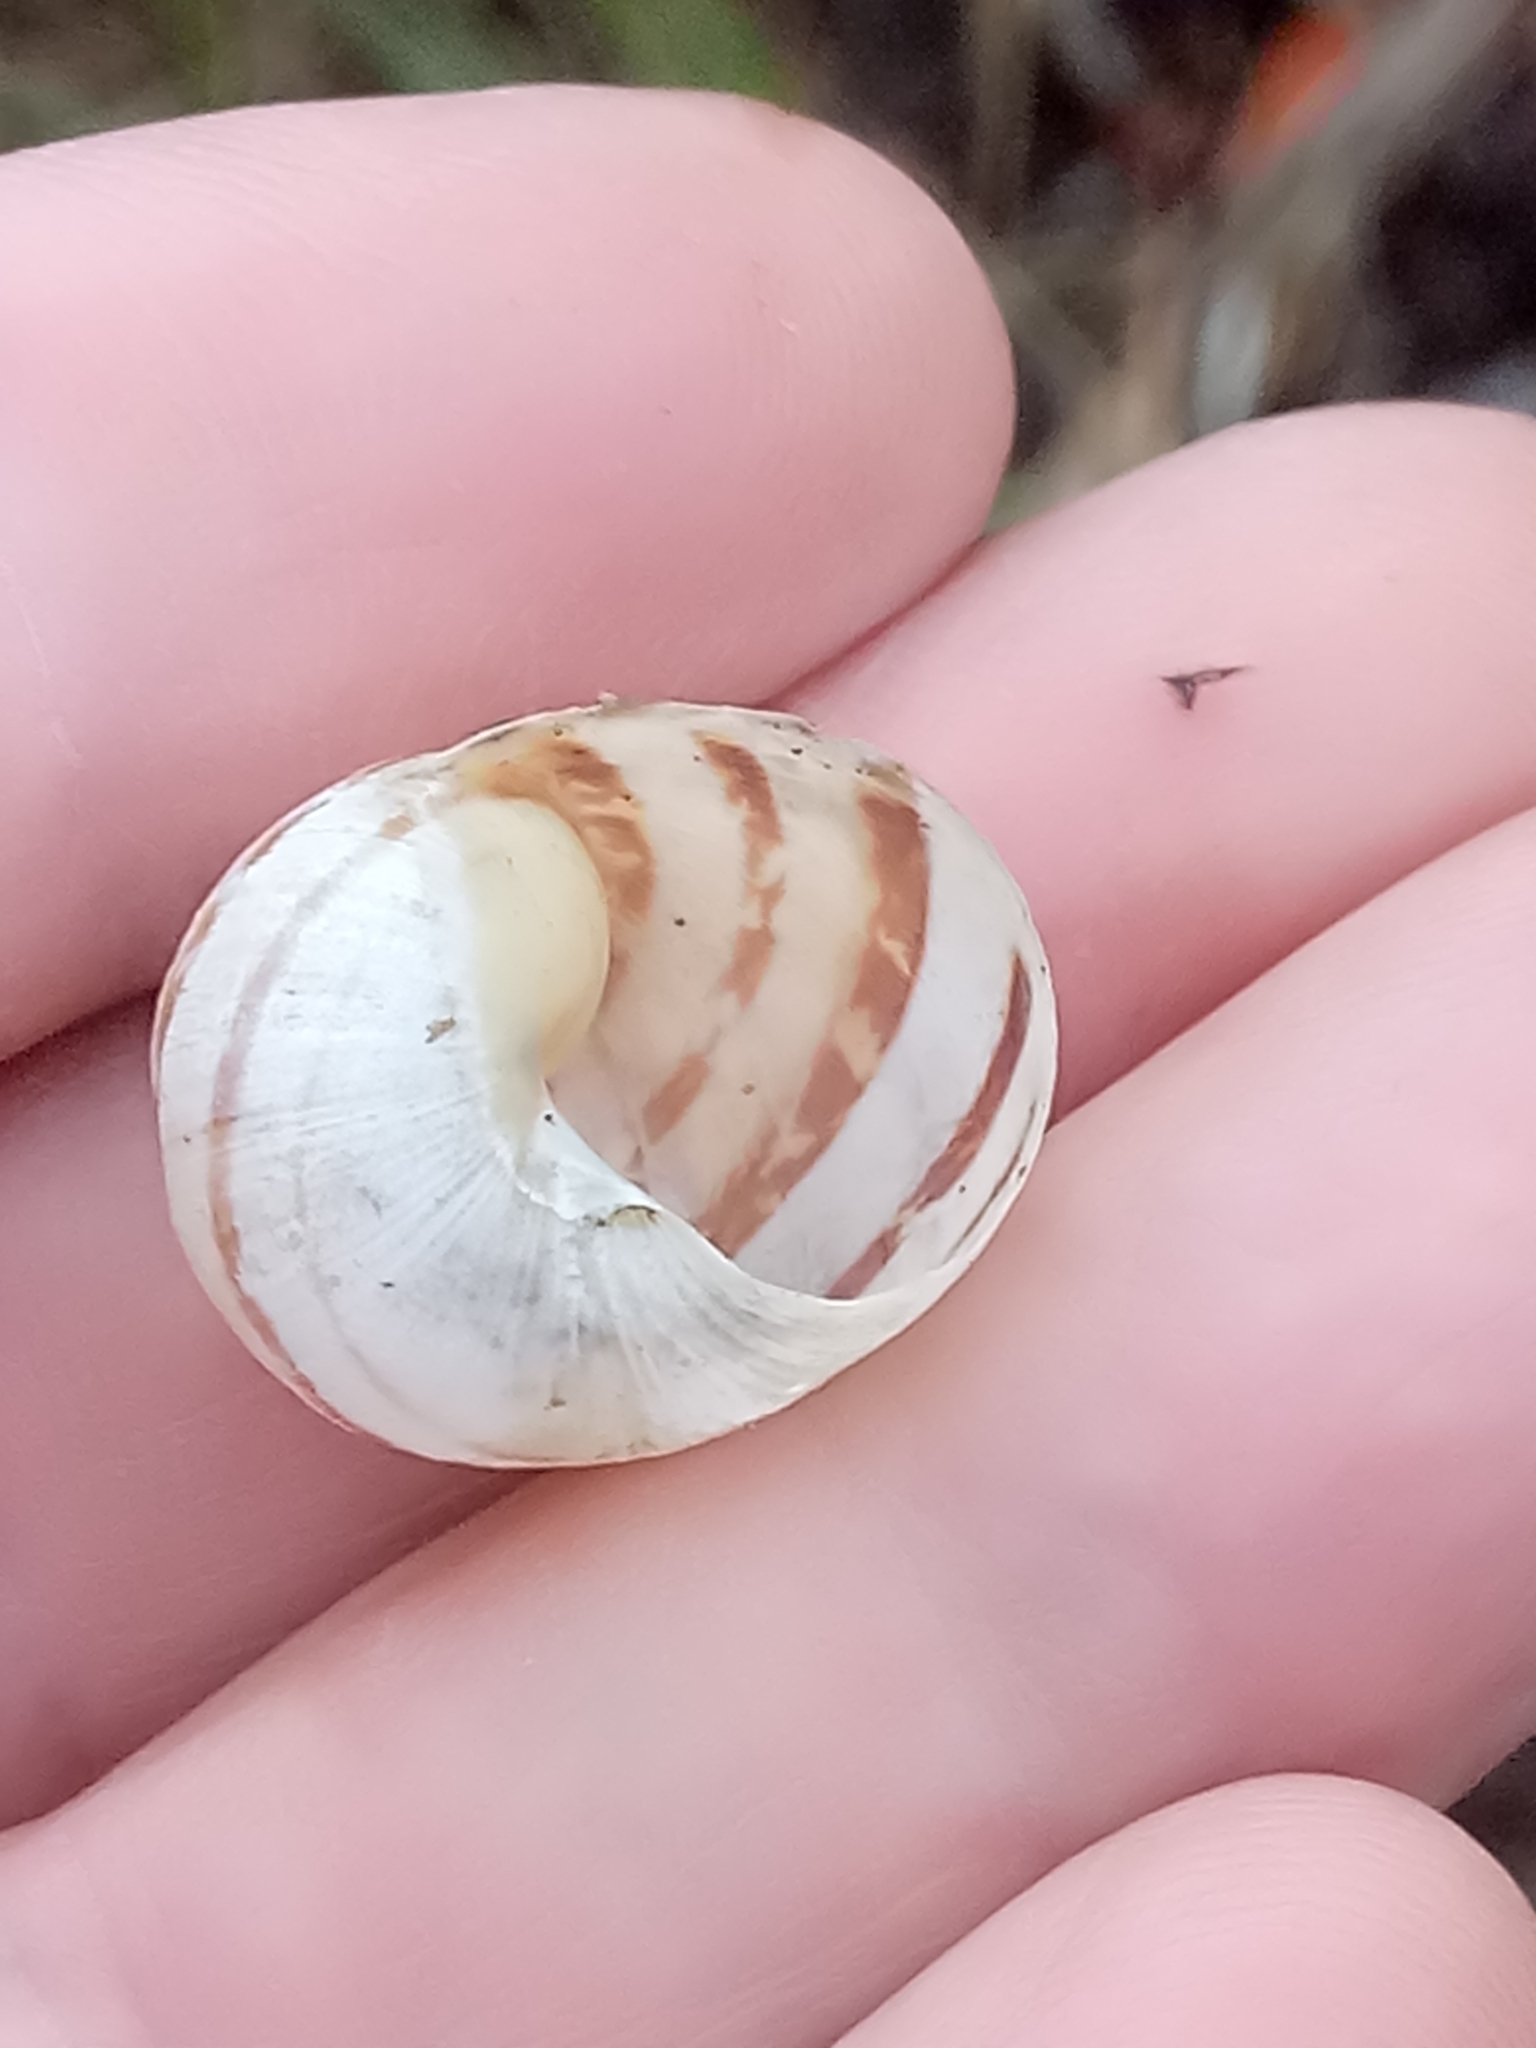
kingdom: Animalia
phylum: Mollusca
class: Gastropoda
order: Stylommatophora
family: Helicidae
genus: Cornu
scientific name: Cornu aspersum
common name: Brown garden snail
